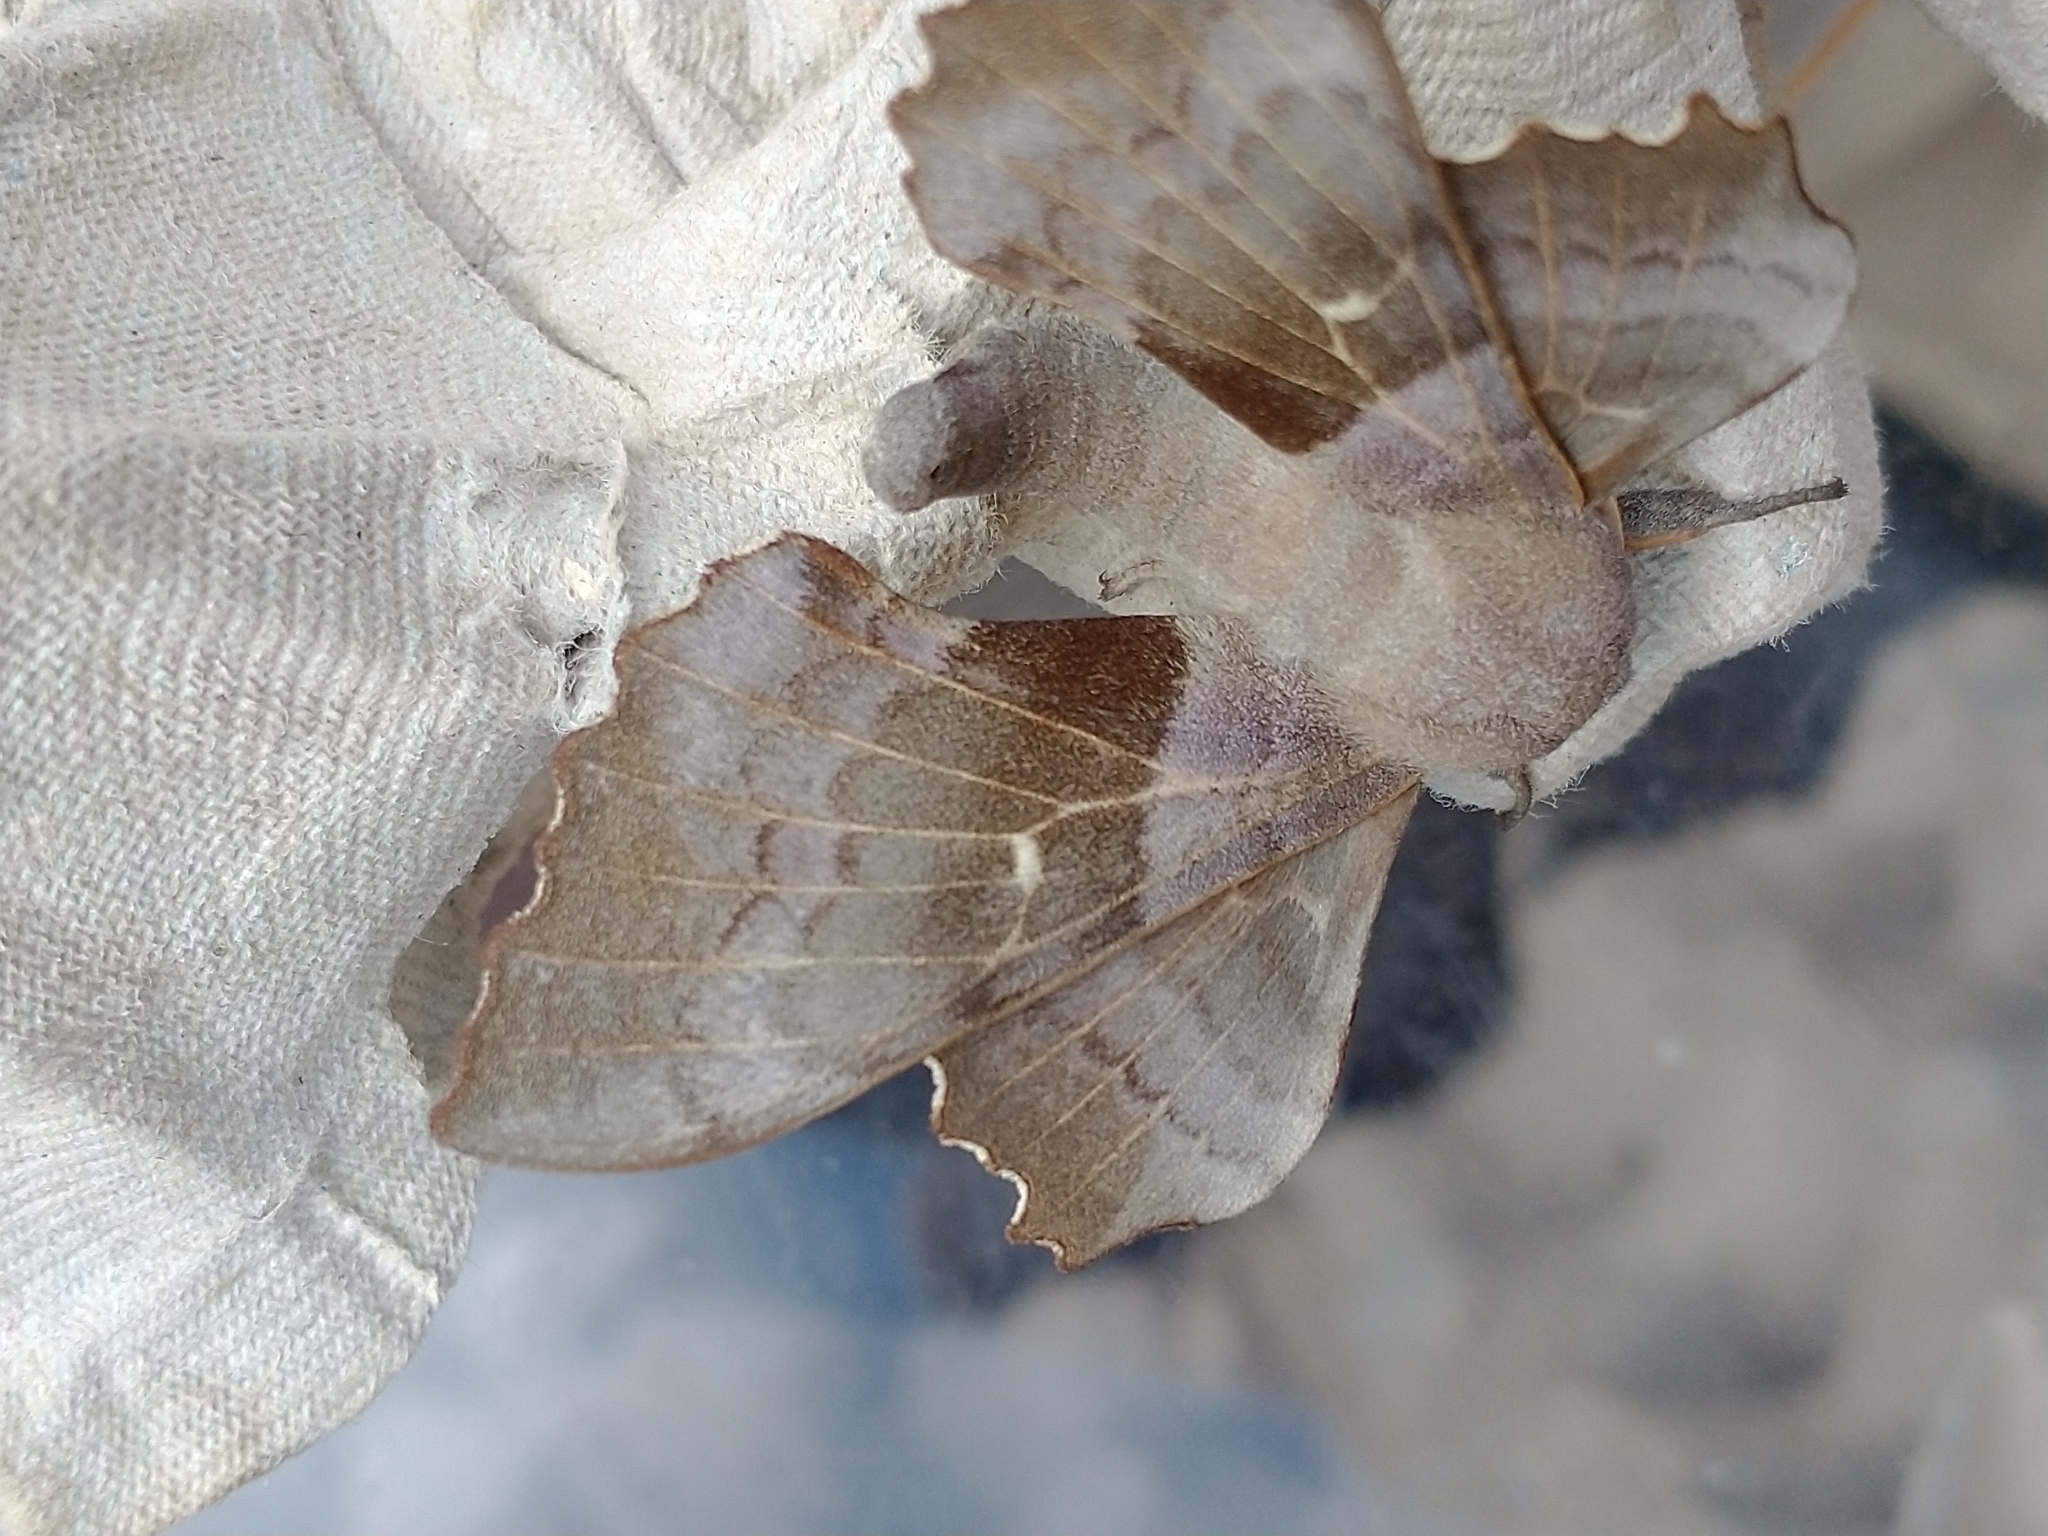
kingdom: Animalia
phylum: Arthropoda
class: Insecta
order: Lepidoptera
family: Sphingidae
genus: Laothoe
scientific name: Laothoe populi
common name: Poplar hawk-moth
